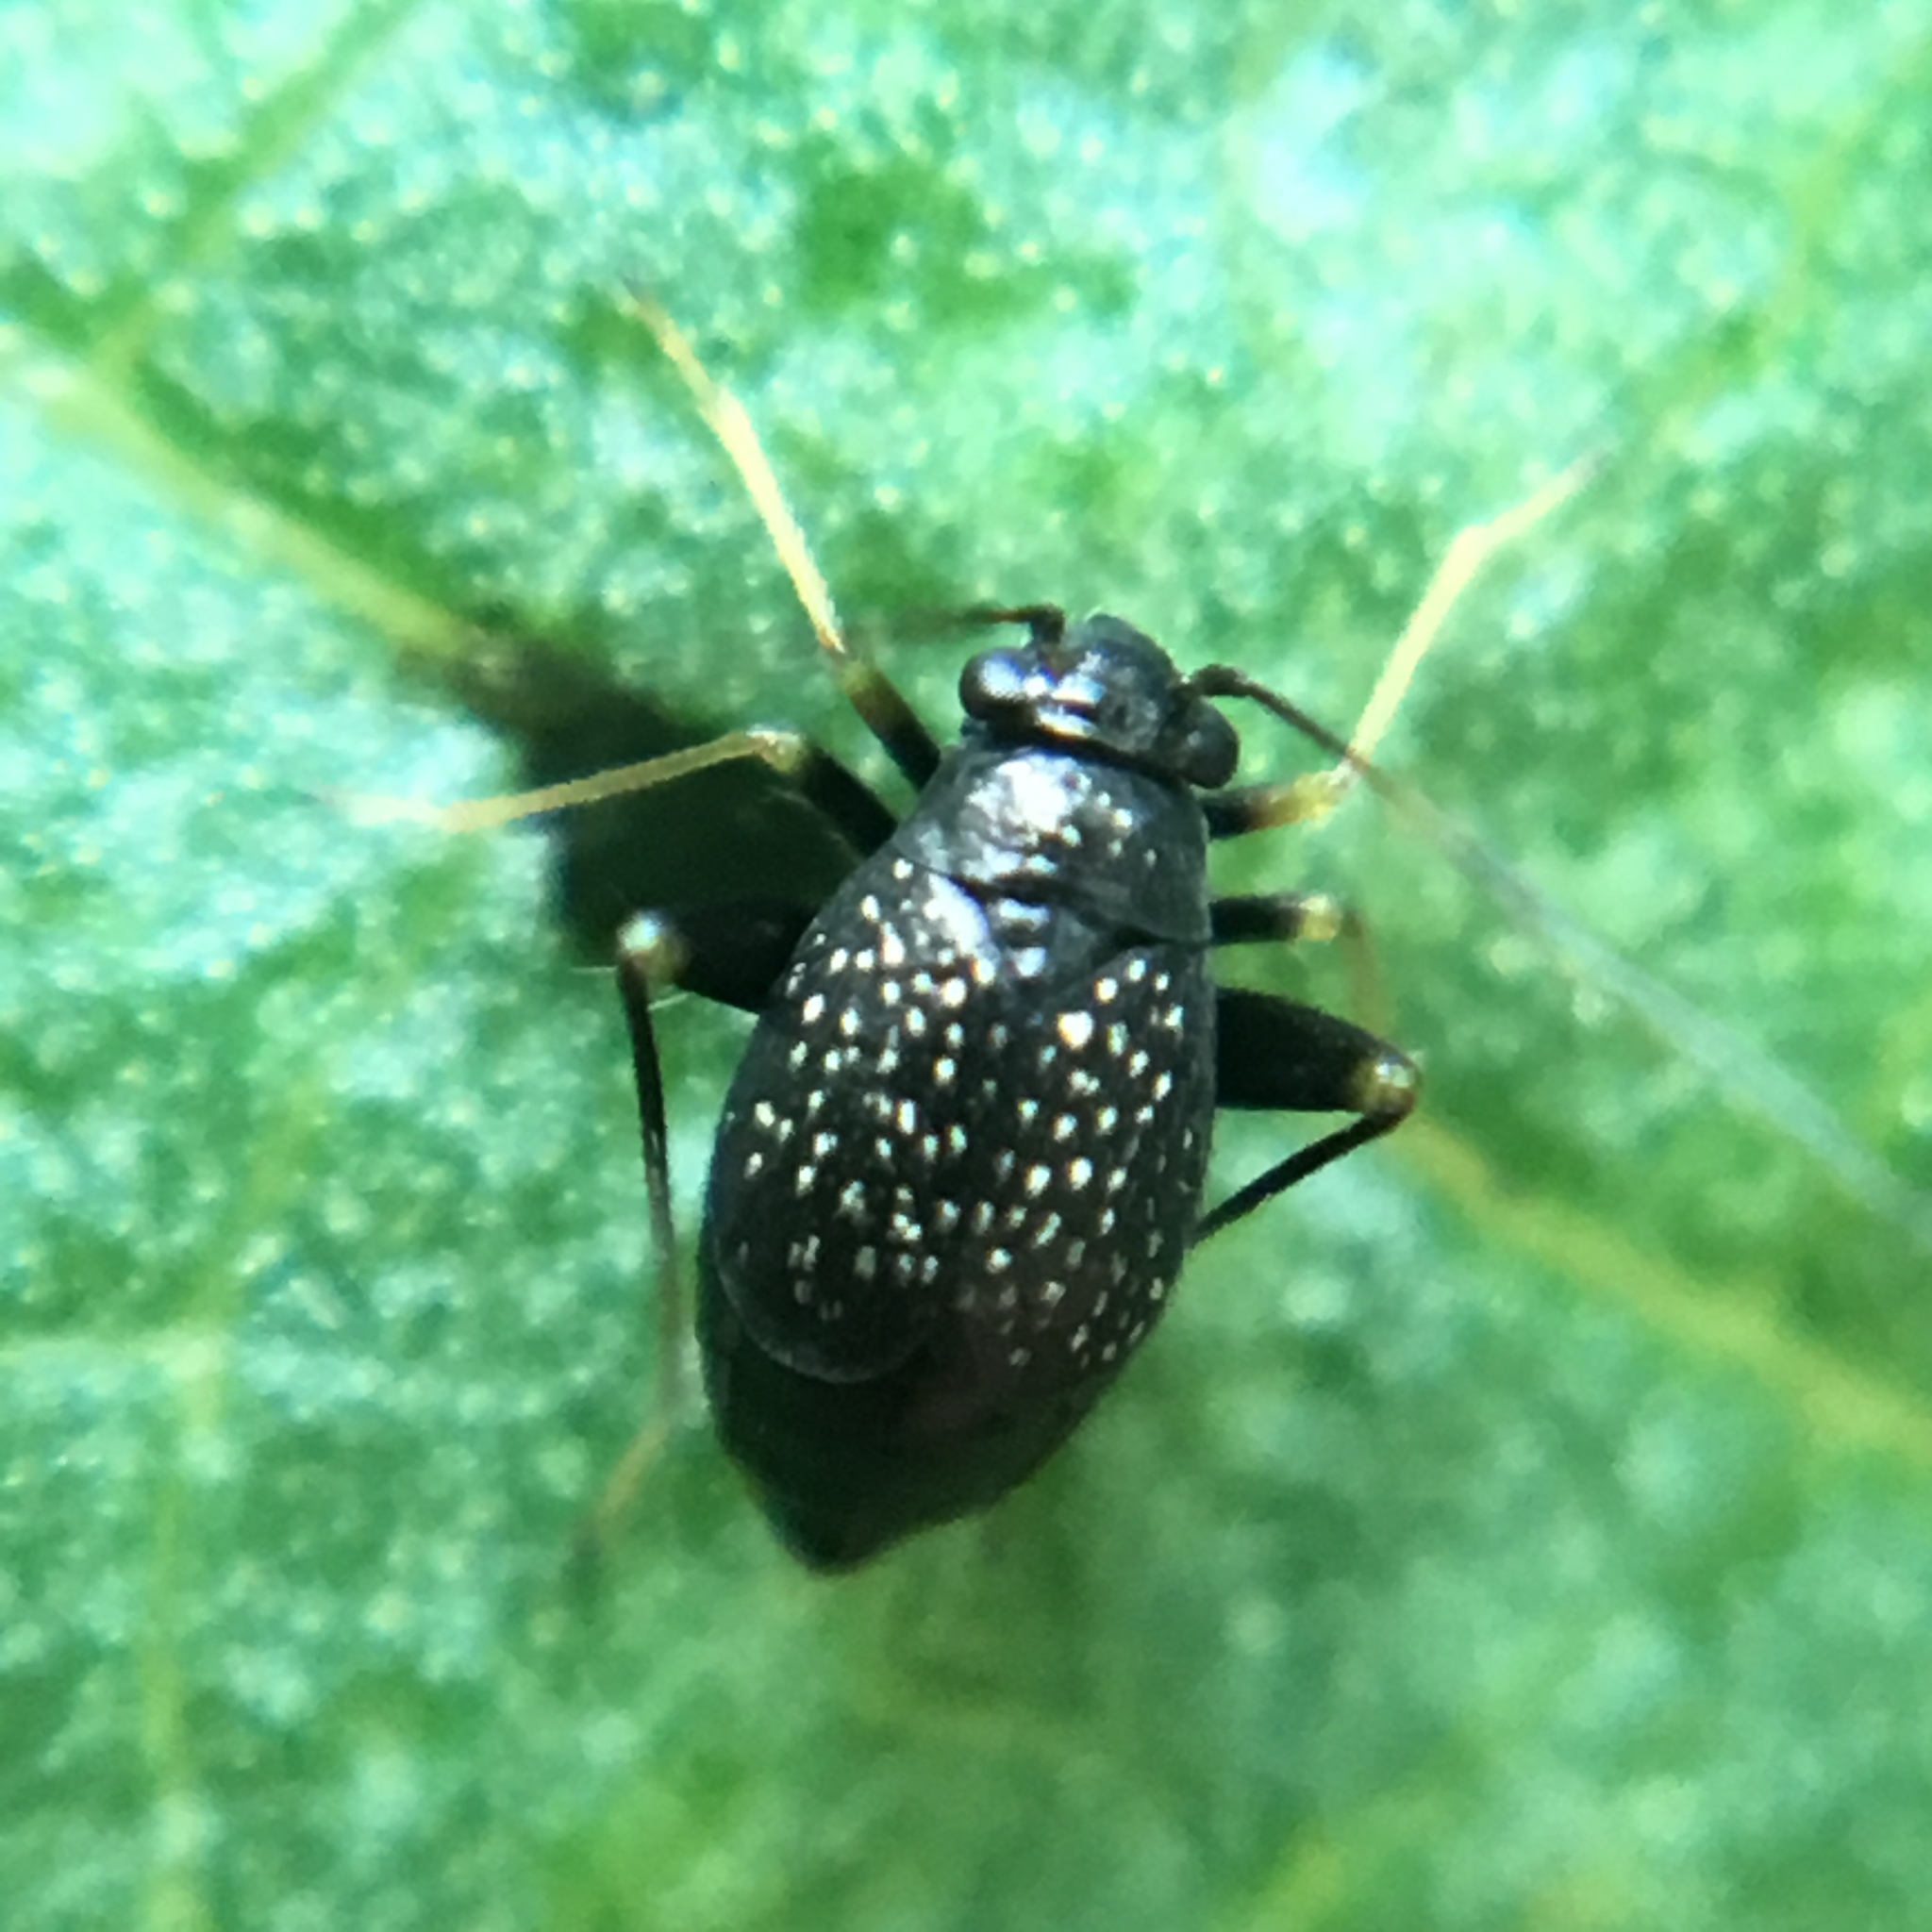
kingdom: Animalia
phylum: Arthropoda
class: Insecta
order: Hemiptera
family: Miridae
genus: Microtechnites
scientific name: Microtechnites bractatus
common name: Garden fleahopper
